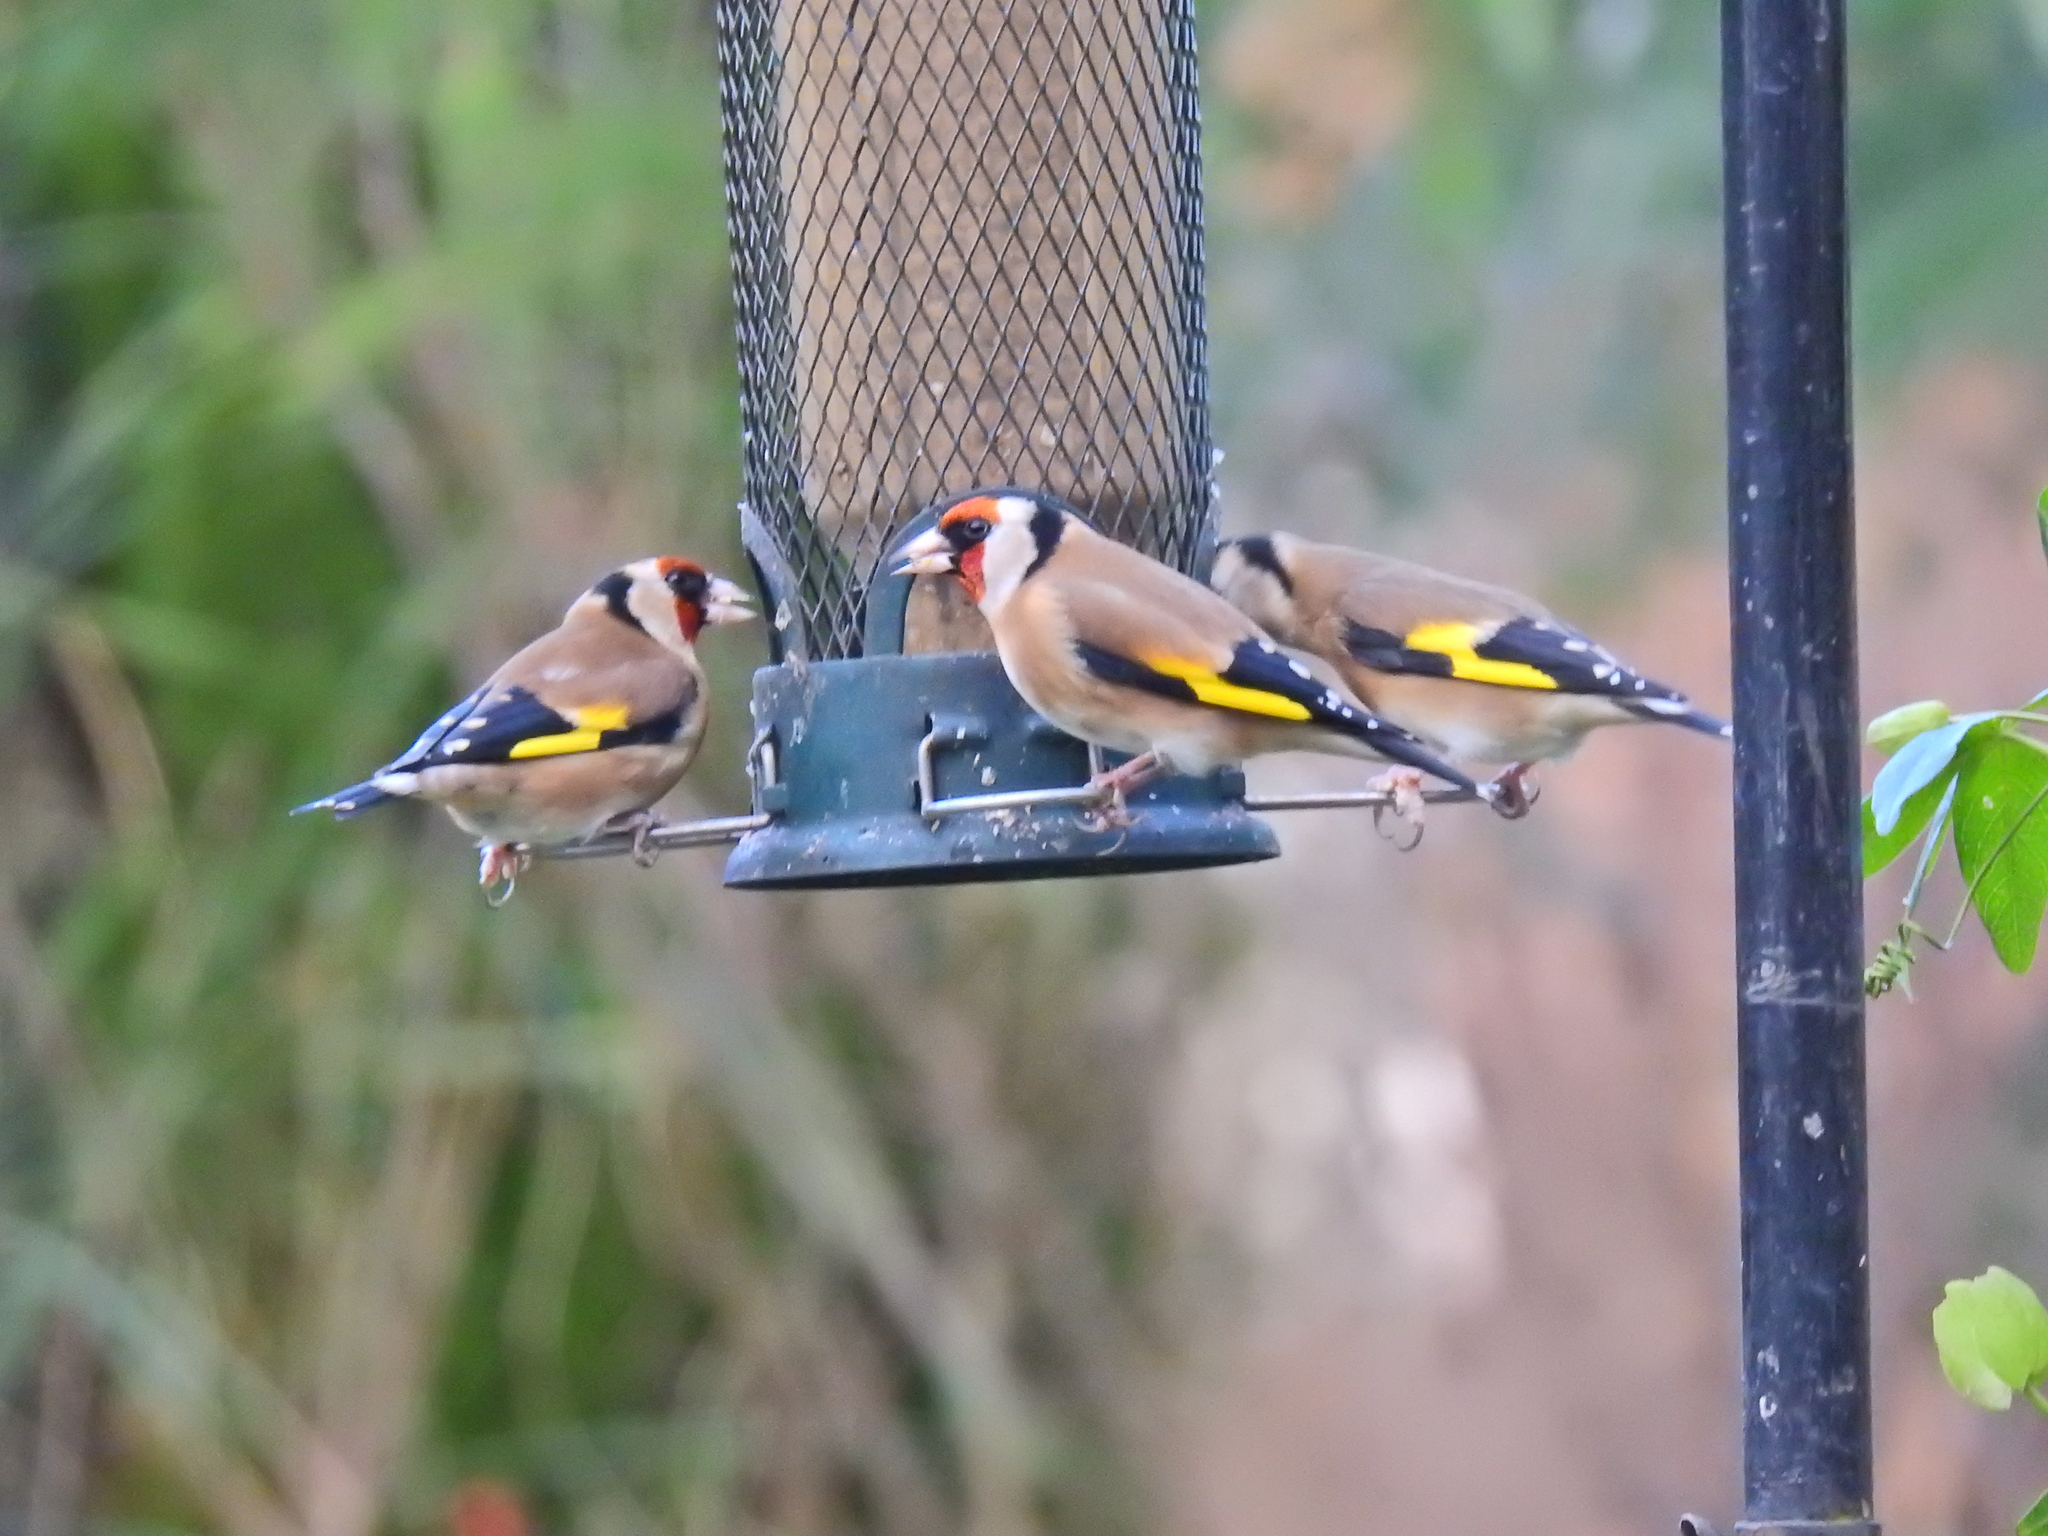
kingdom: Animalia
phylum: Chordata
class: Aves
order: Passeriformes
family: Fringillidae
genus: Carduelis
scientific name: Carduelis carduelis
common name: European goldfinch
